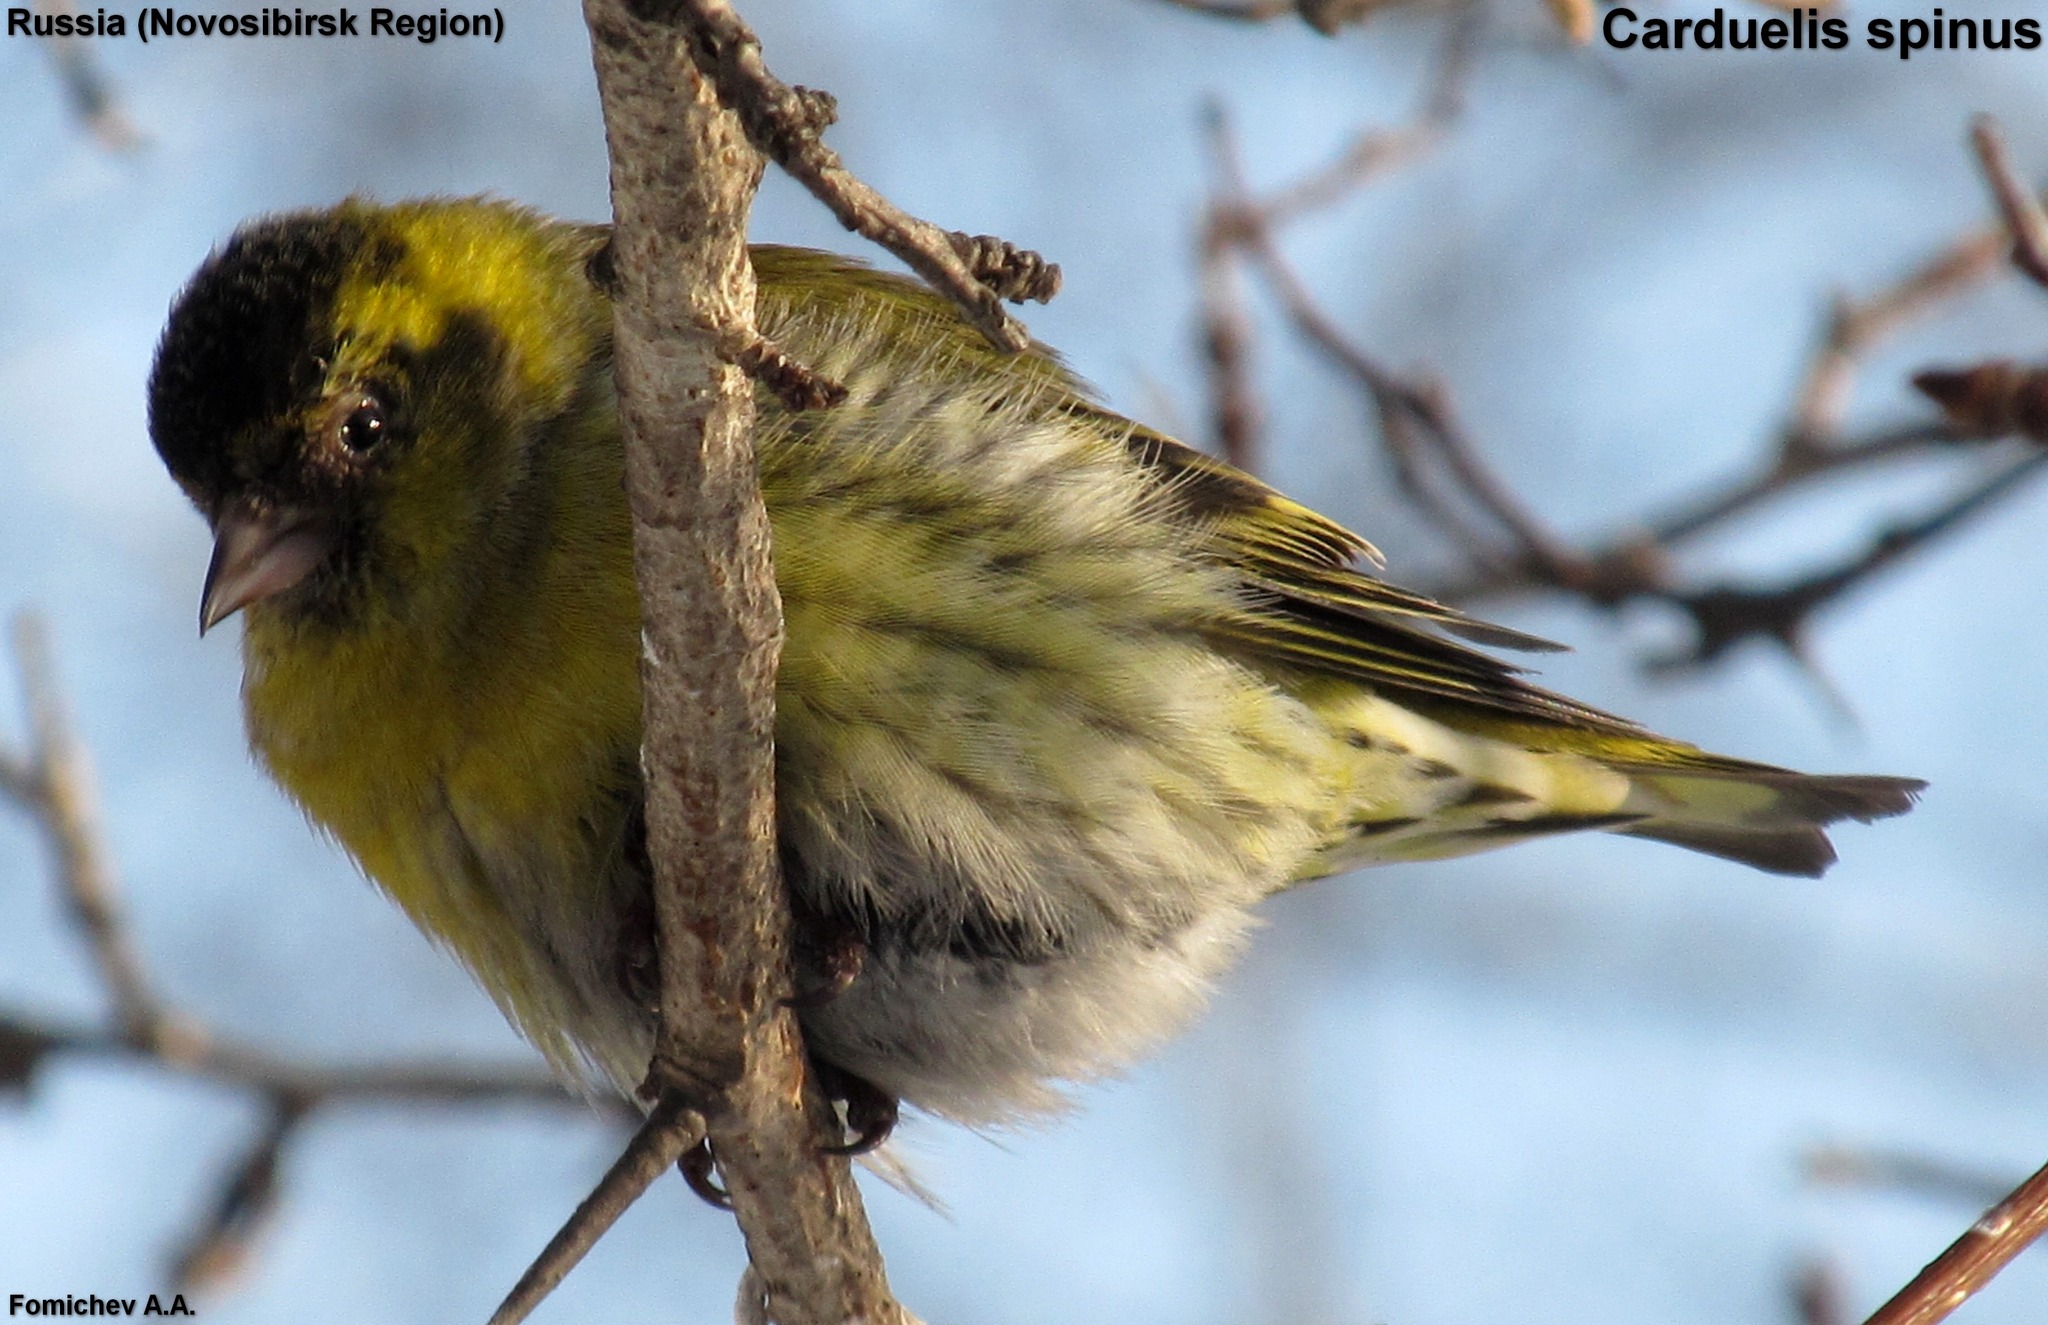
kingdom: Animalia
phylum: Chordata
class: Aves
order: Passeriformes
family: Fringillidae
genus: Spinus
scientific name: Spinus spinus
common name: Eurasian siskin
